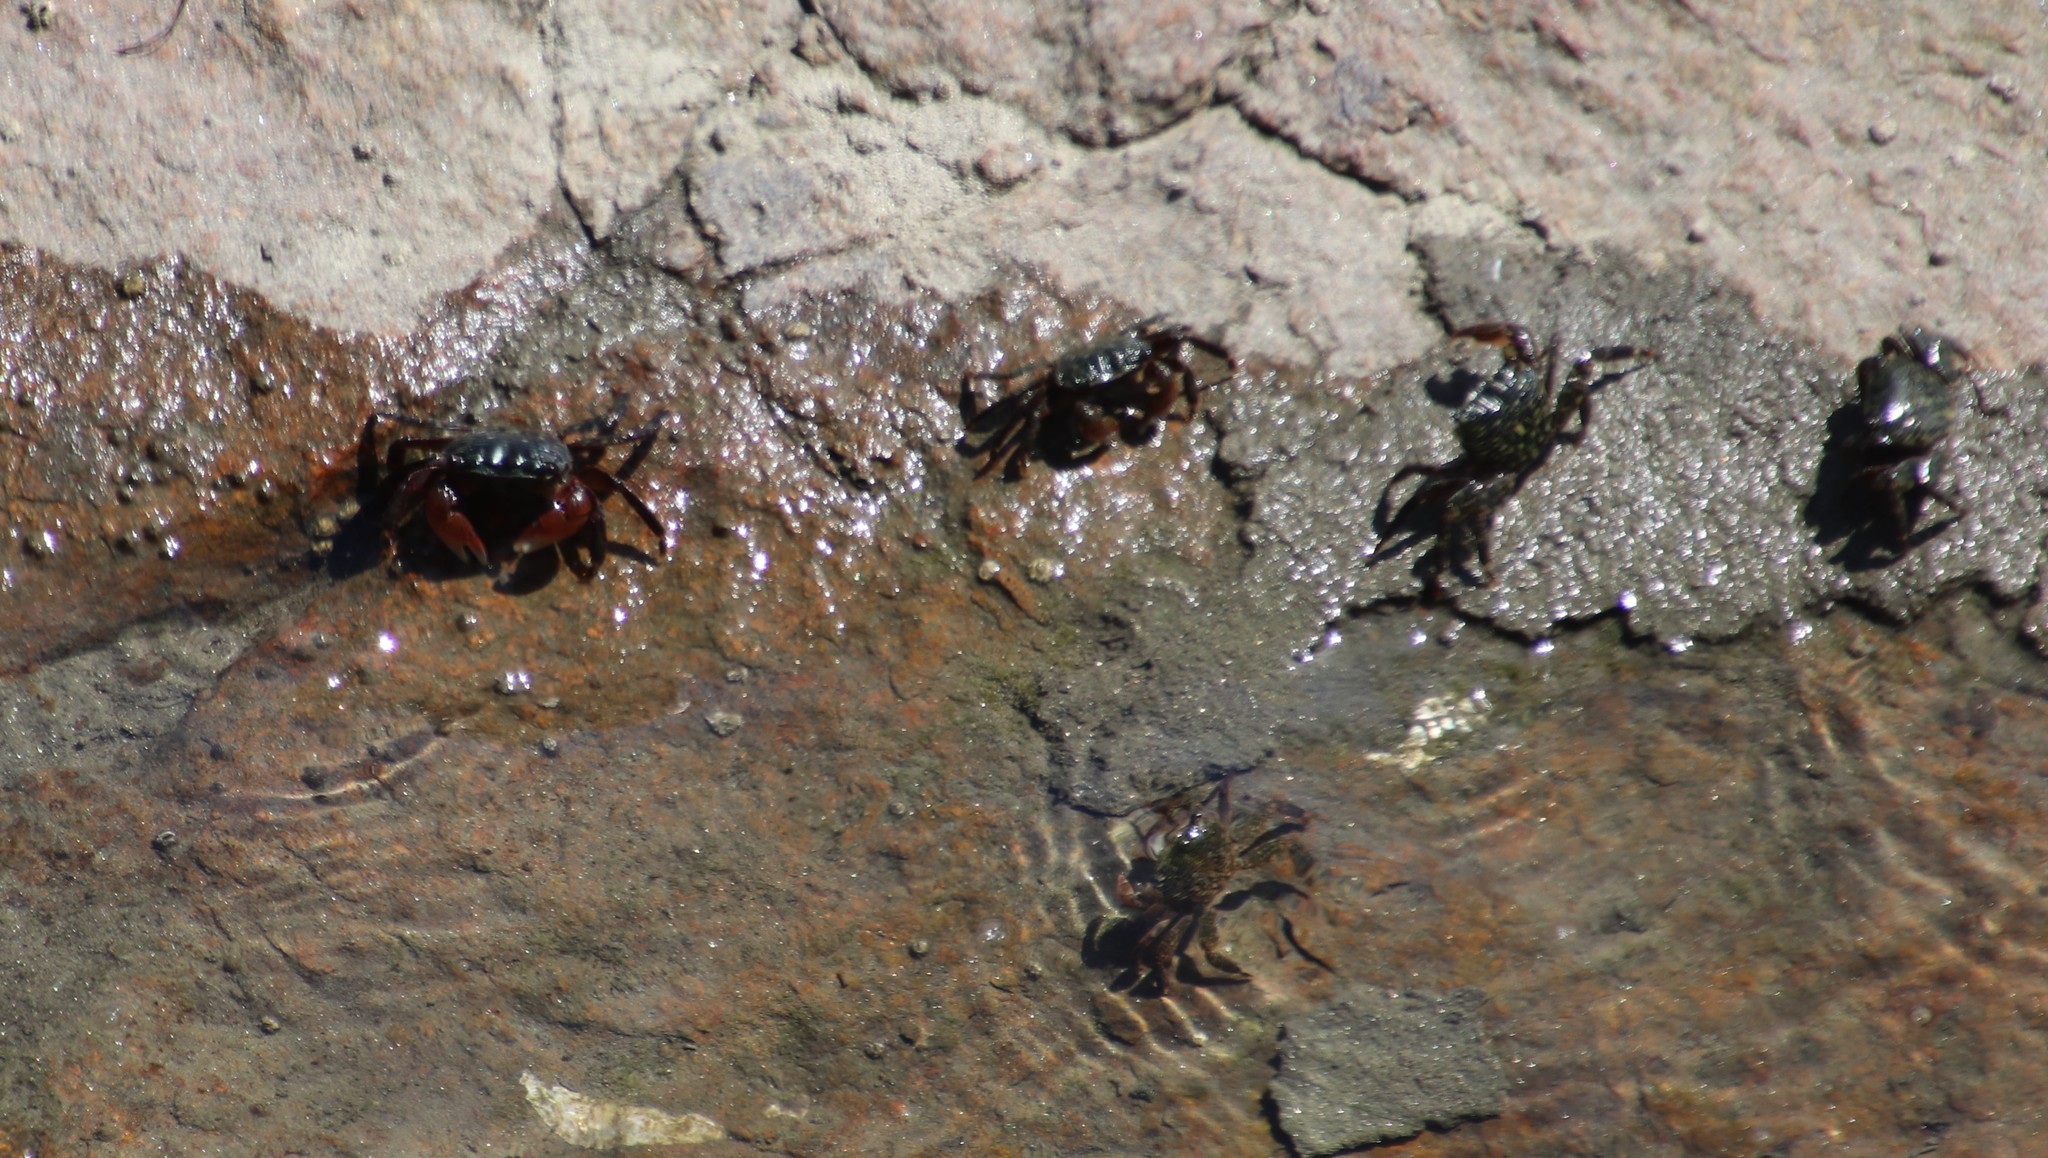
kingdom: Animalia
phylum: Arthropoda
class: Malacostraca
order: Decapoda
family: Grapsidae
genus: Pachygrapsus
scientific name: Pachygrapsus crassipes
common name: Striped shore crab
